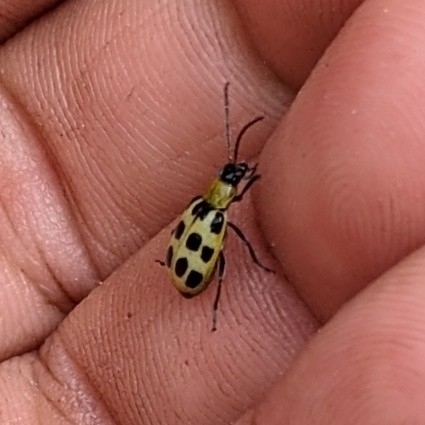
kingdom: Animalia
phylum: Arthropoda
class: Insecta
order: Coleoptera
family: Chrysomelidae
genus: Diabrotica
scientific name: Diabrotica undecimpunctata
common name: Spotted cucumber beetle
